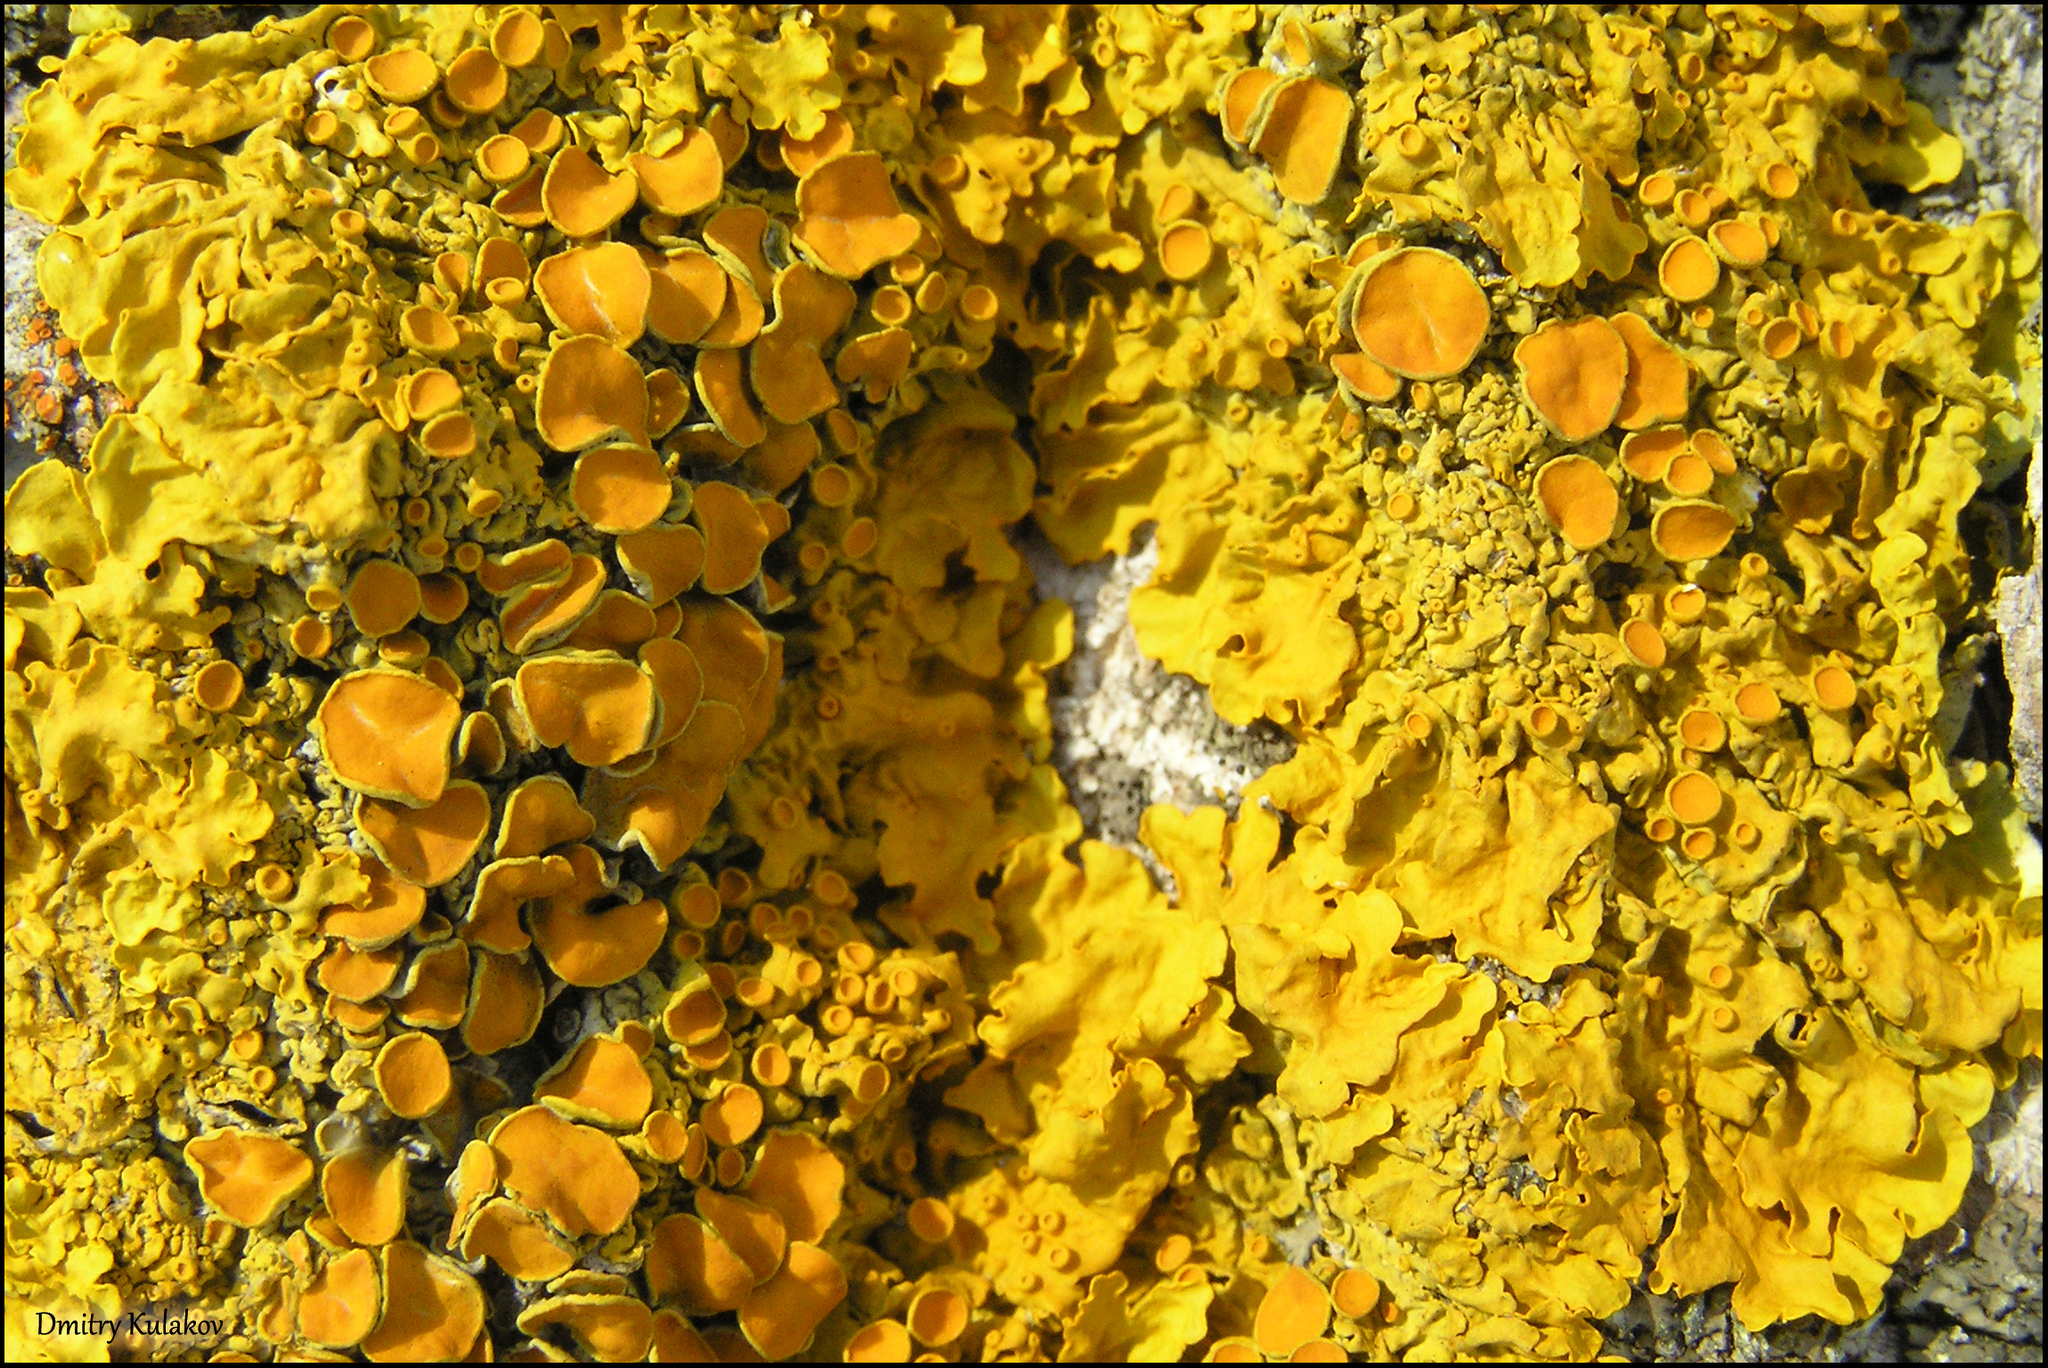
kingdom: Fungi
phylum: Ascomycota
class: Lecanoromycetes
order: Teloschistales
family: Teloschistaceae
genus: Xanthoria
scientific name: Xanthoria parietina
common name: Common orange lichen
